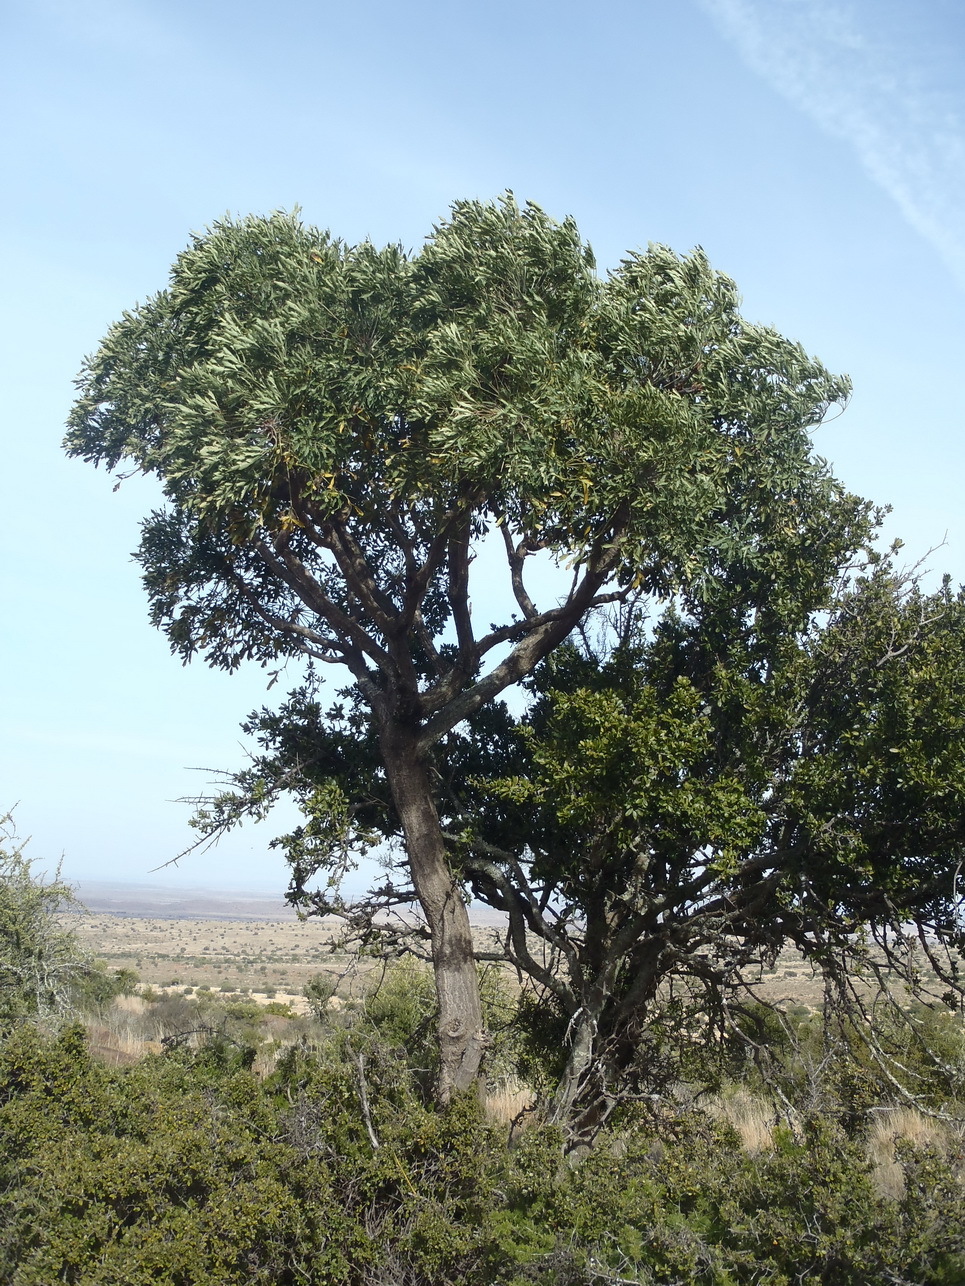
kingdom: Plantae
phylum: Tracheophyta
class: Magnoliopsida
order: Apiales
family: Araliaceae
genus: Cussonia
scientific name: Cussonia spicata
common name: Common cabbagetree
